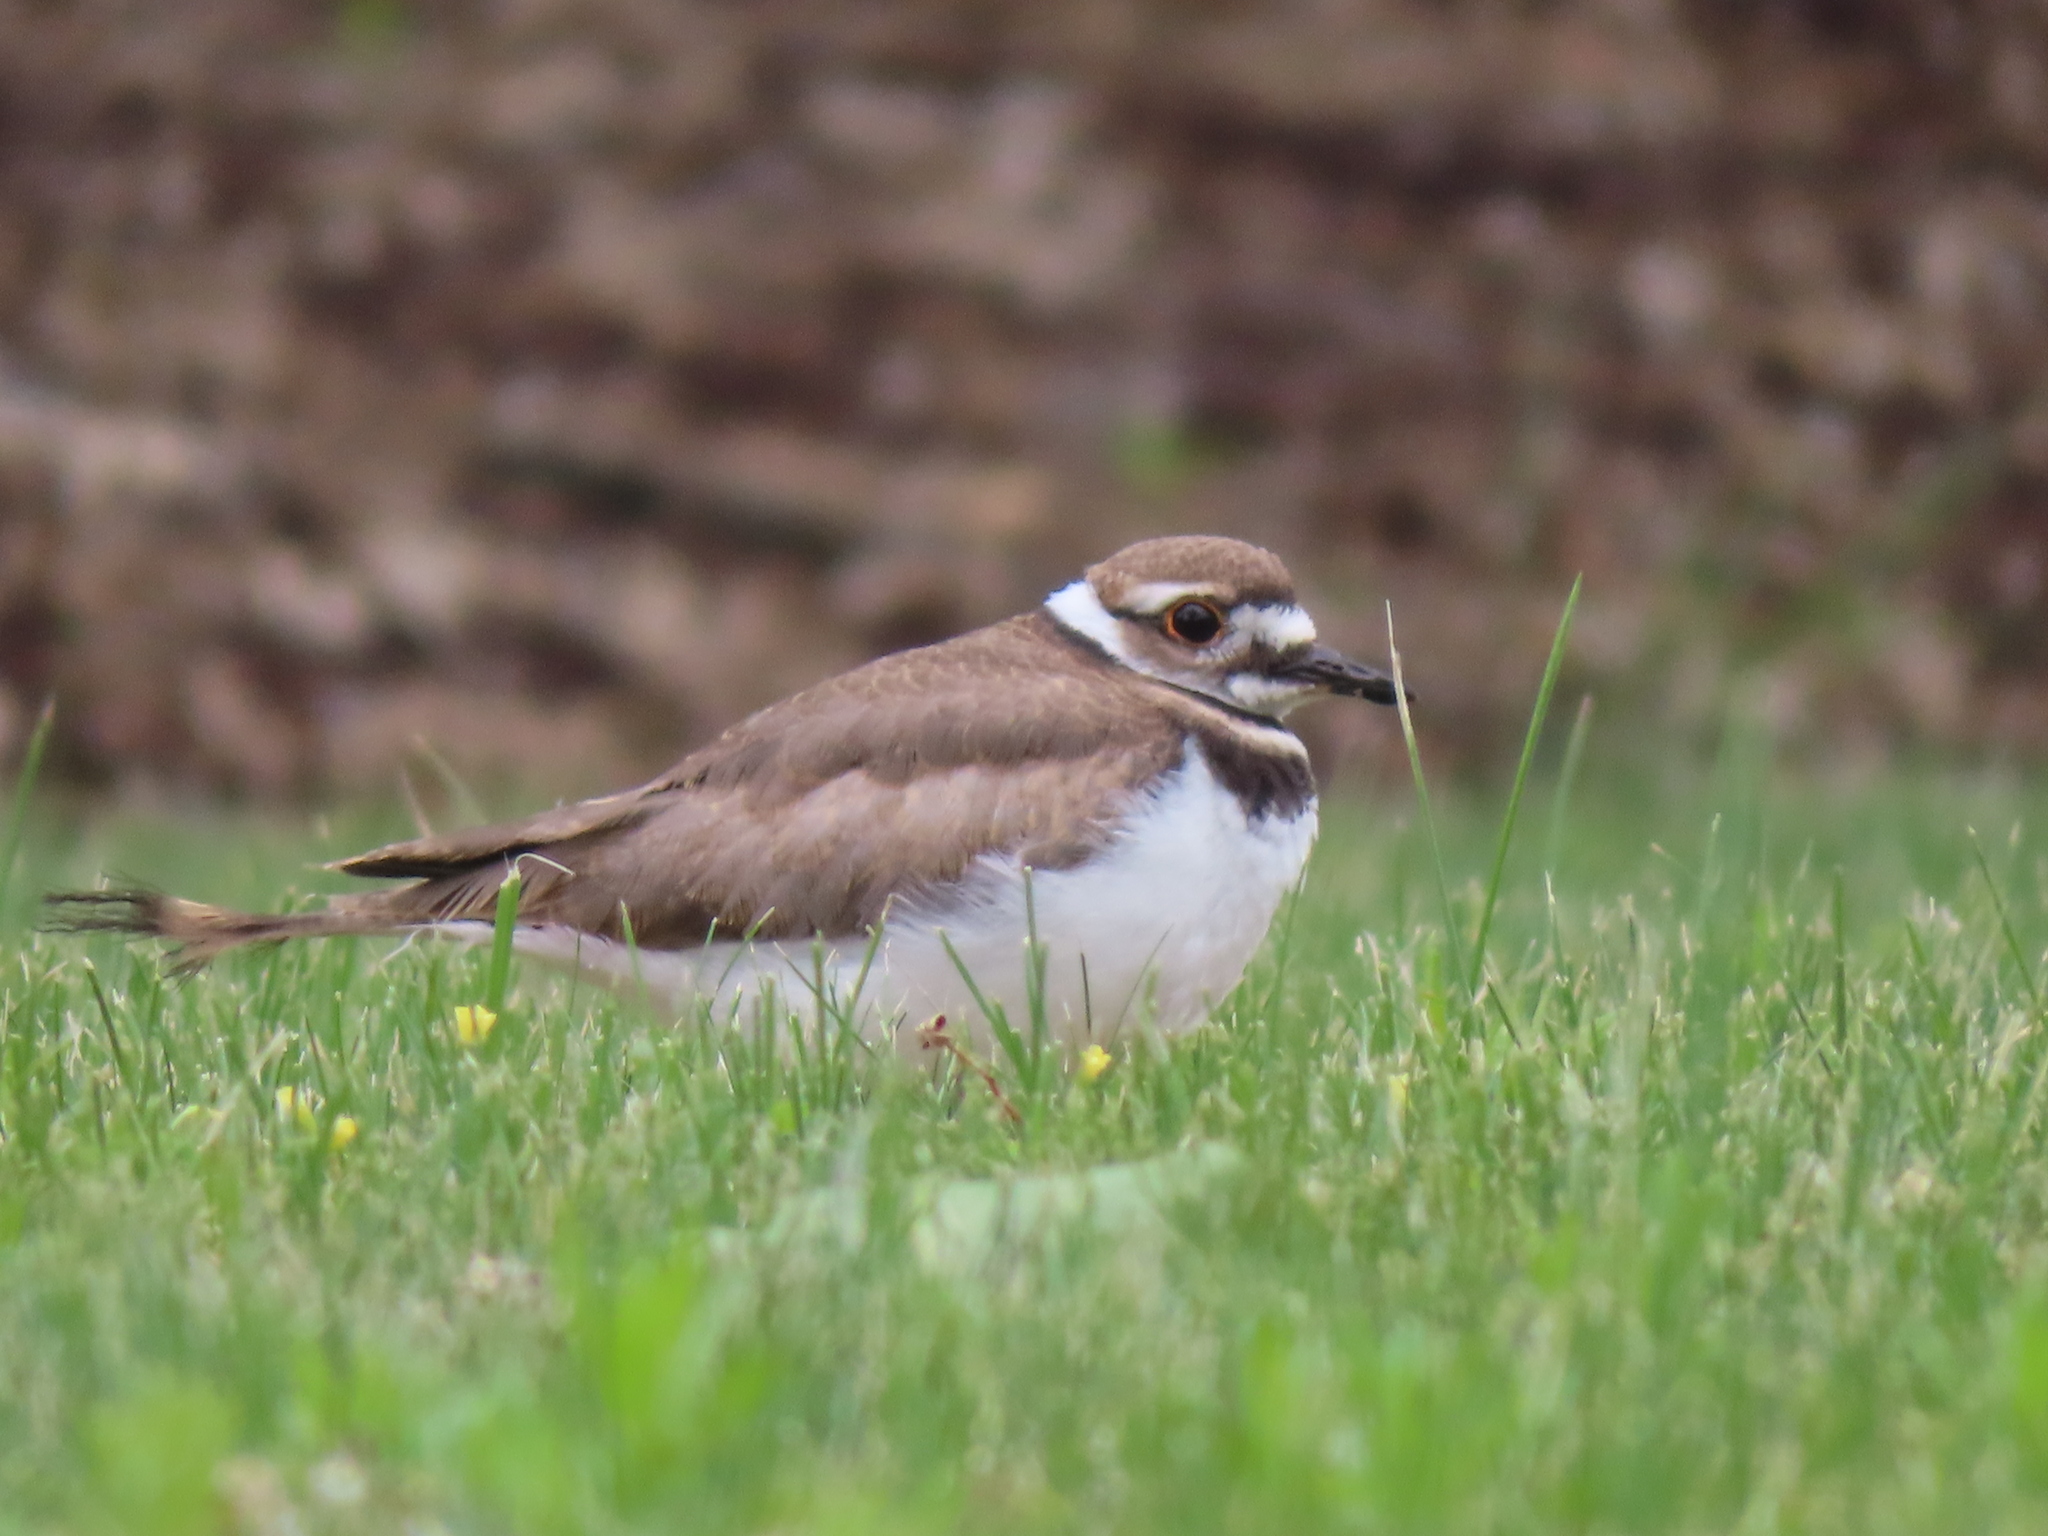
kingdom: Animalia
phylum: Chordata
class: Aves
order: Charadriiformes
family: Charadriidae
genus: Charadrius
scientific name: Charadrius vociferus
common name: Killdeer
